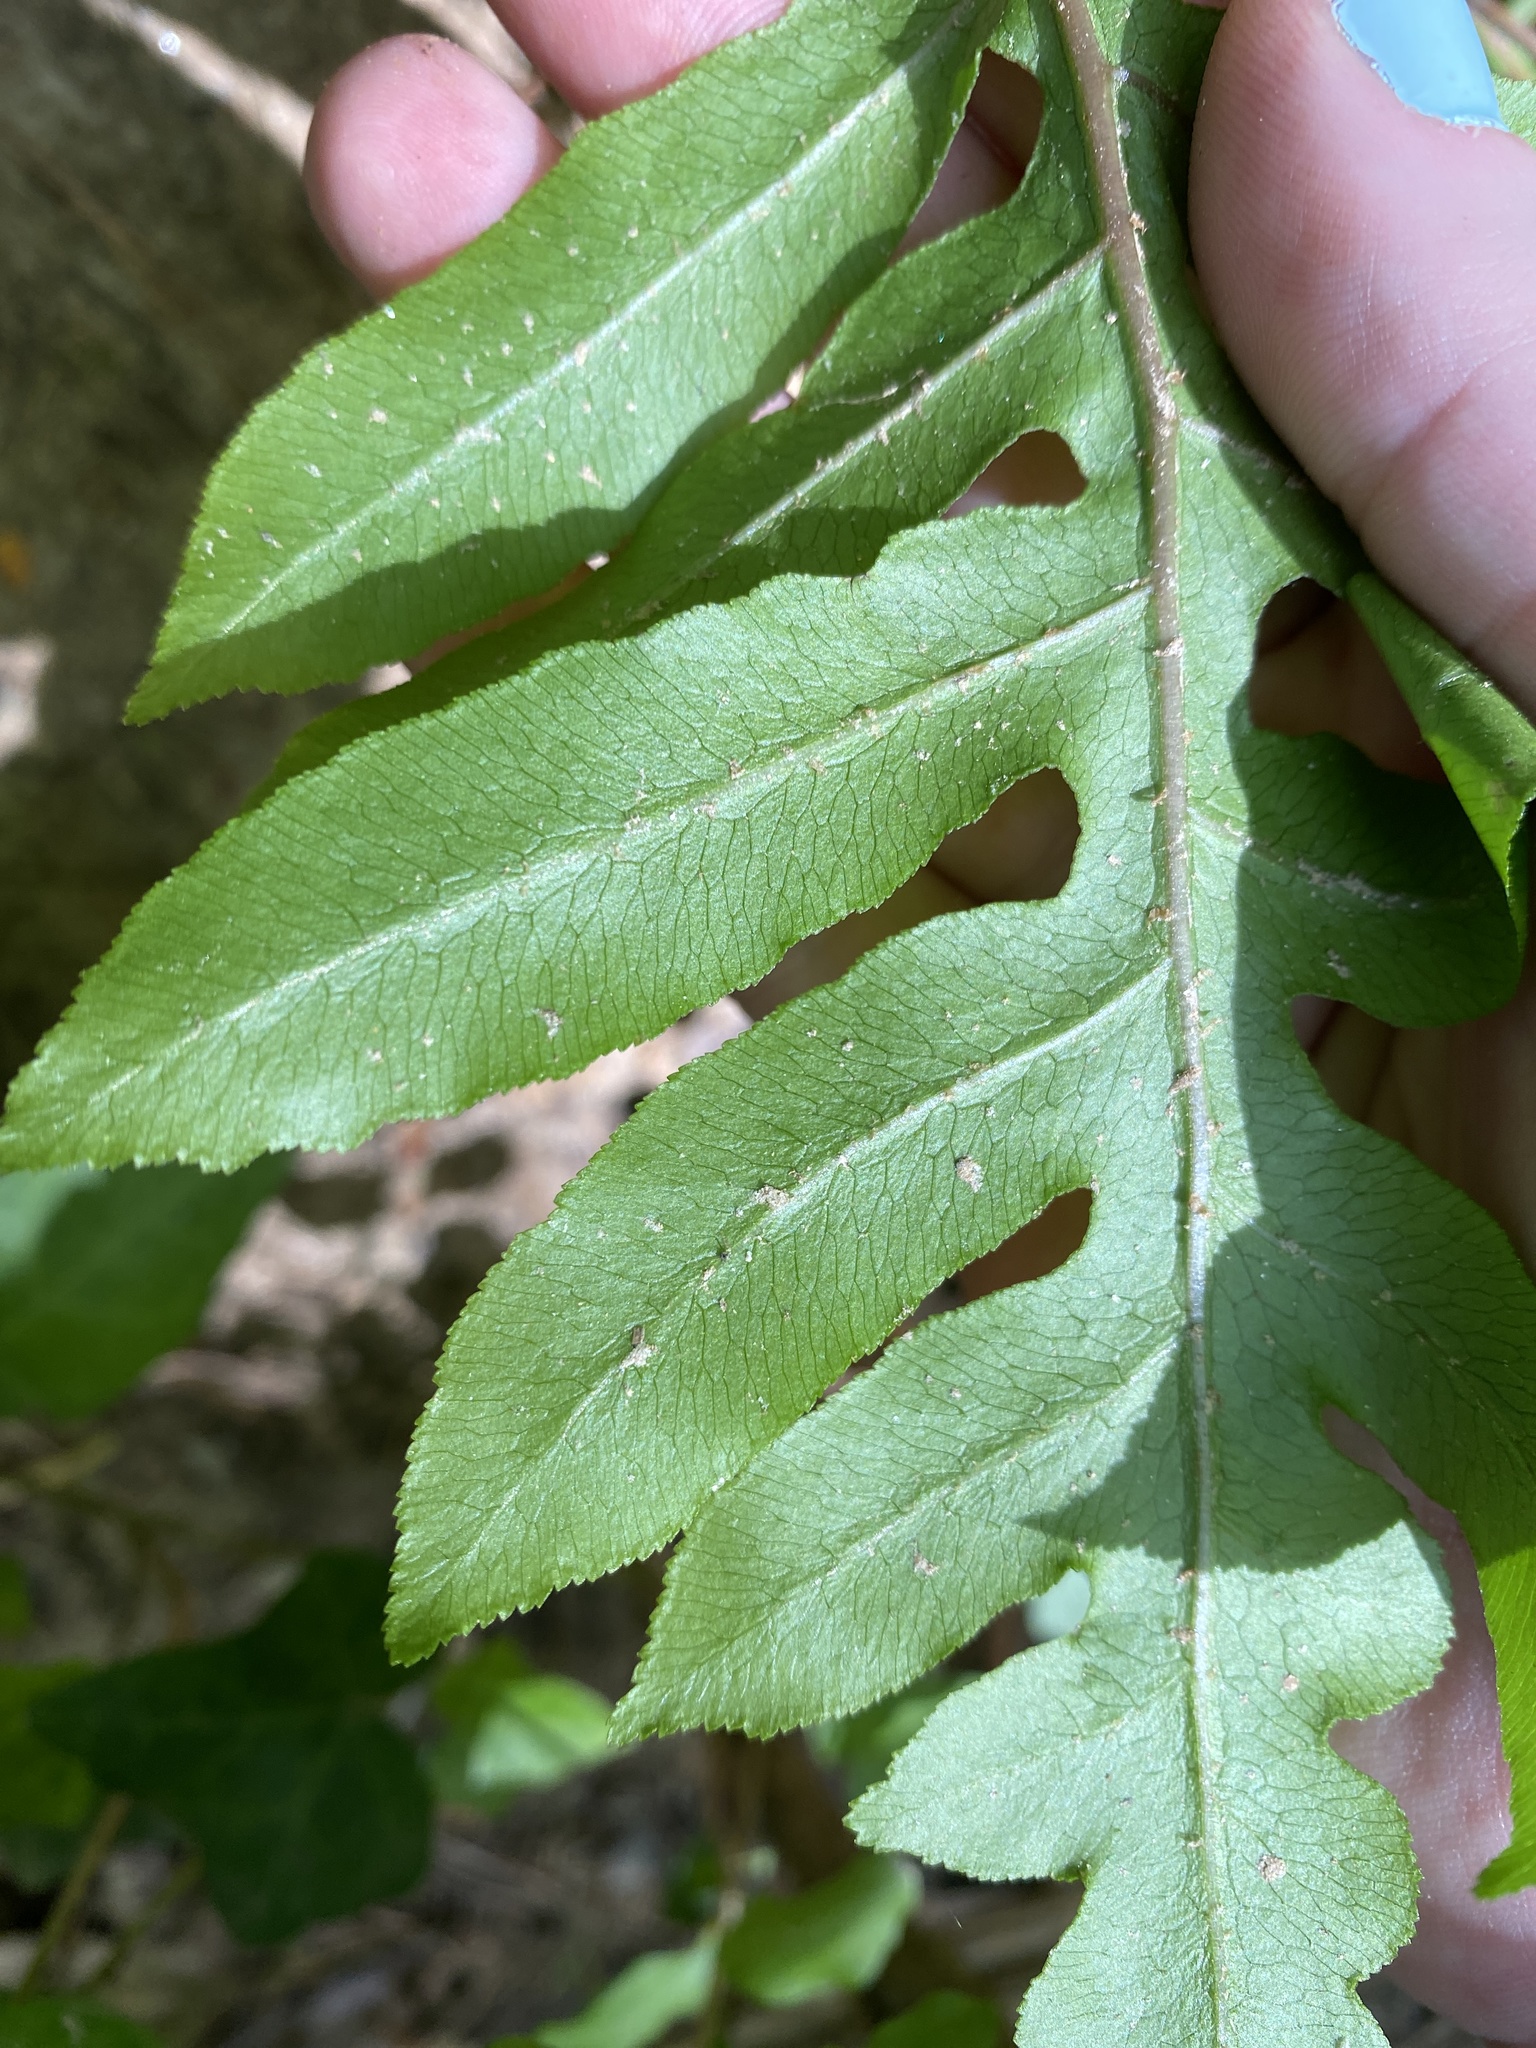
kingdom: Plantae
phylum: Tracheophyta
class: Polypodiopsida
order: Polypodiales
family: Blechnaceae
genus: Lorinseria
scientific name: Lorinseria areolata
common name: Dwarf chain fern
